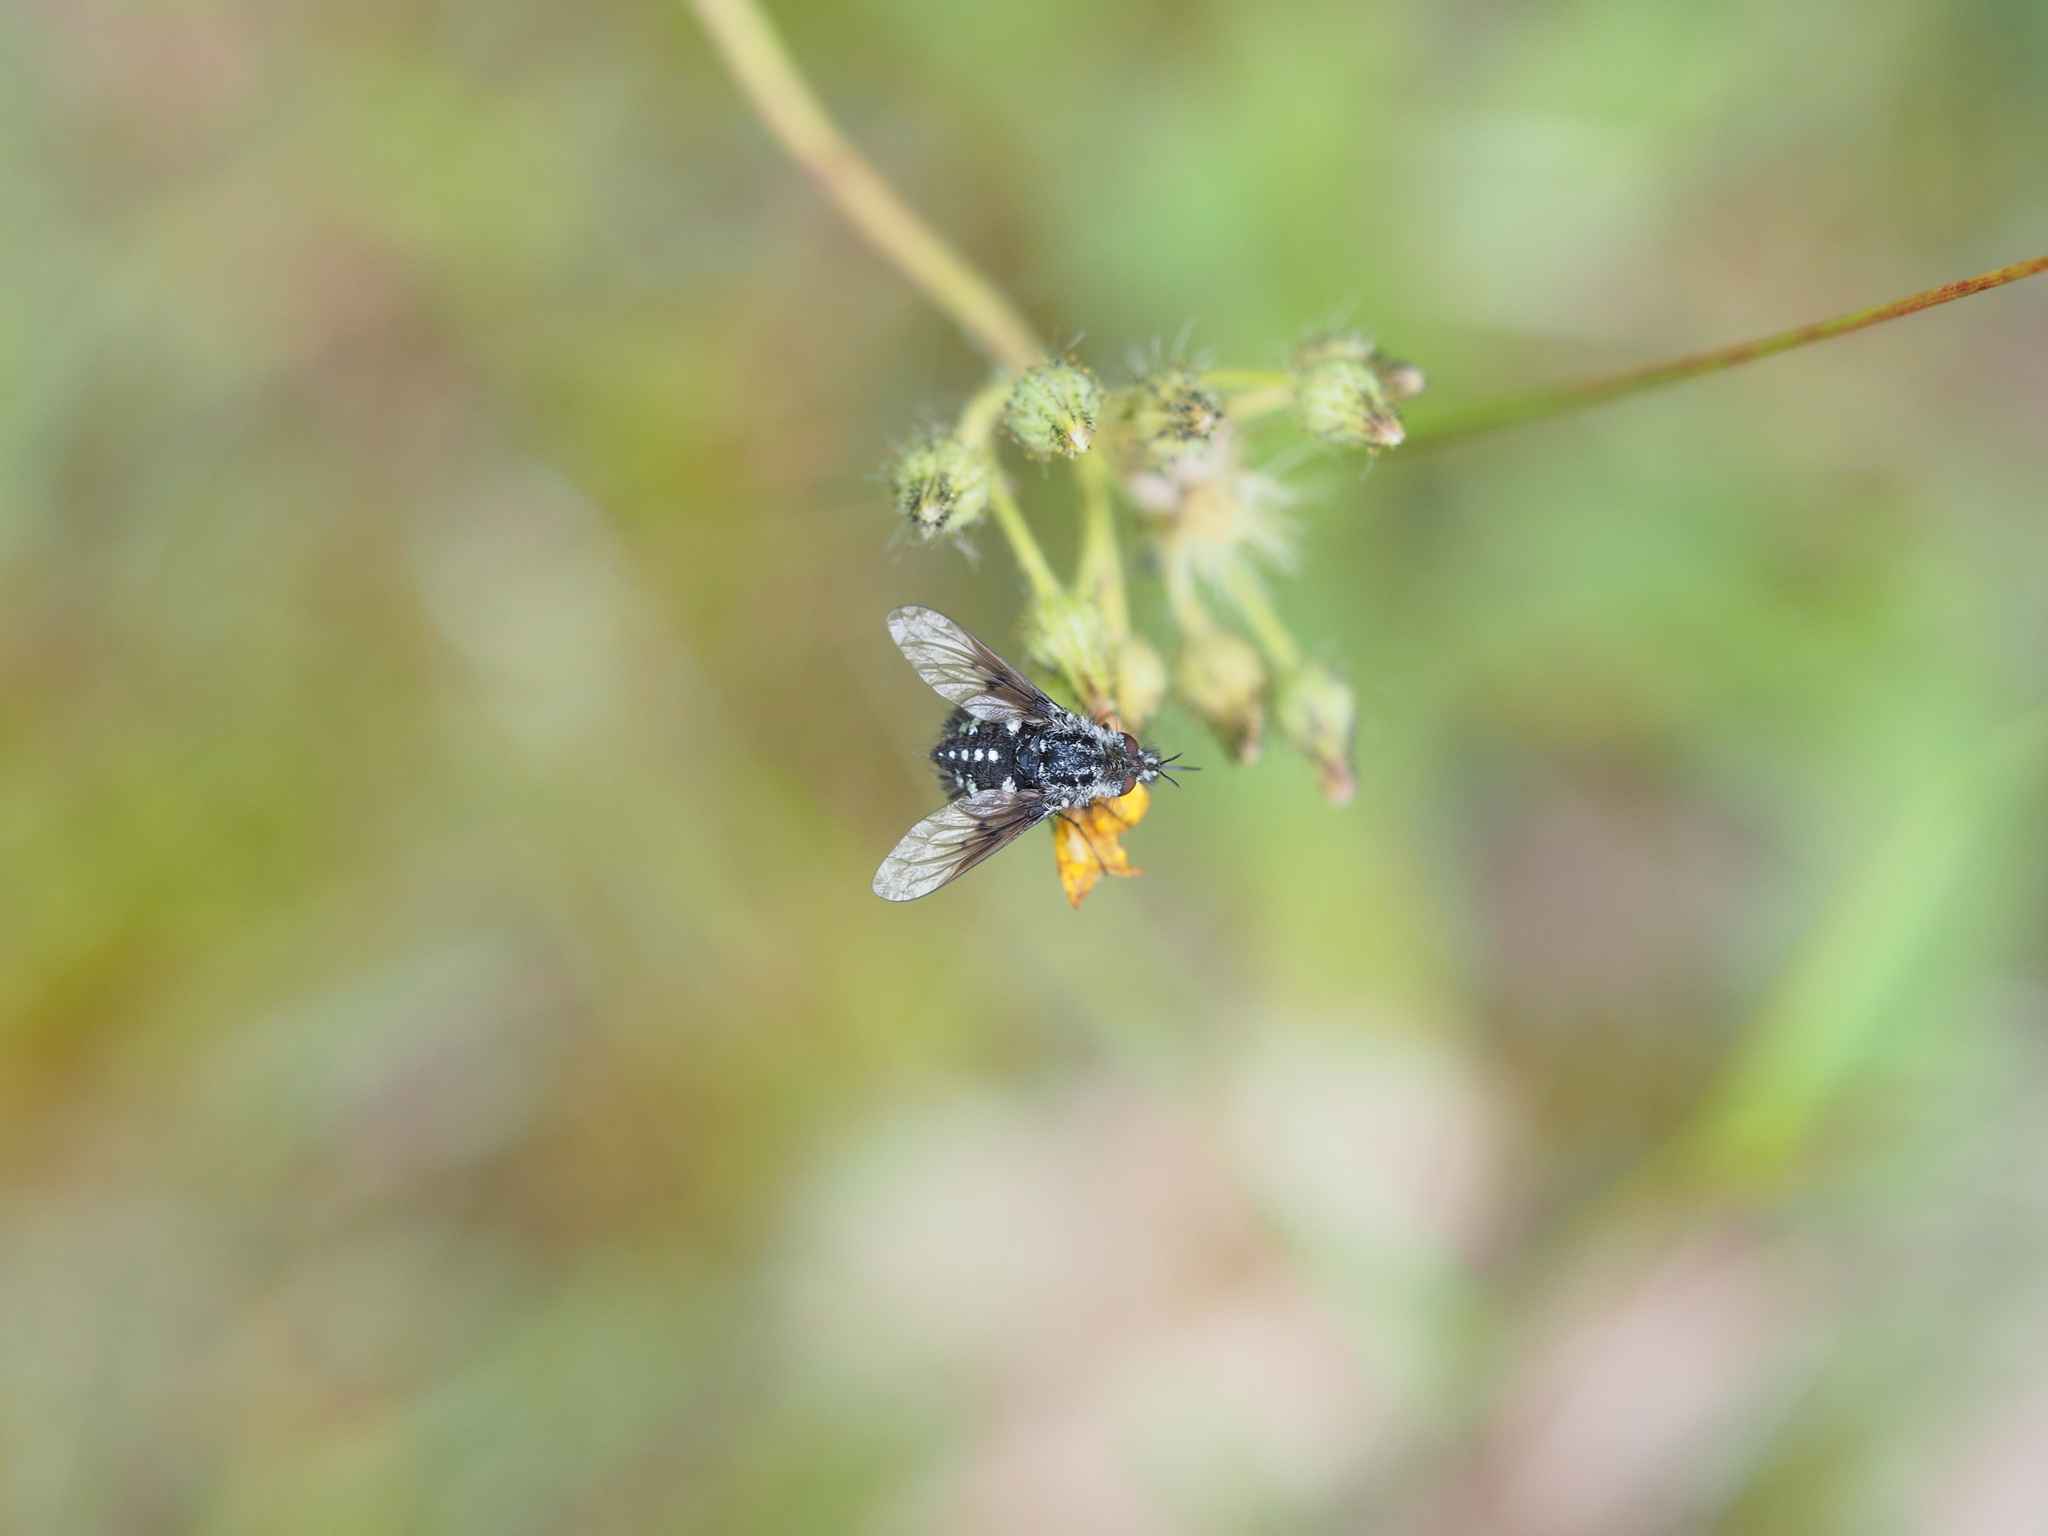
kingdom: Animalia
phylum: Arthropoda
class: Insecta
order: Diptera
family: Bombyliidae
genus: Bombylella
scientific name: Bombylella atra
